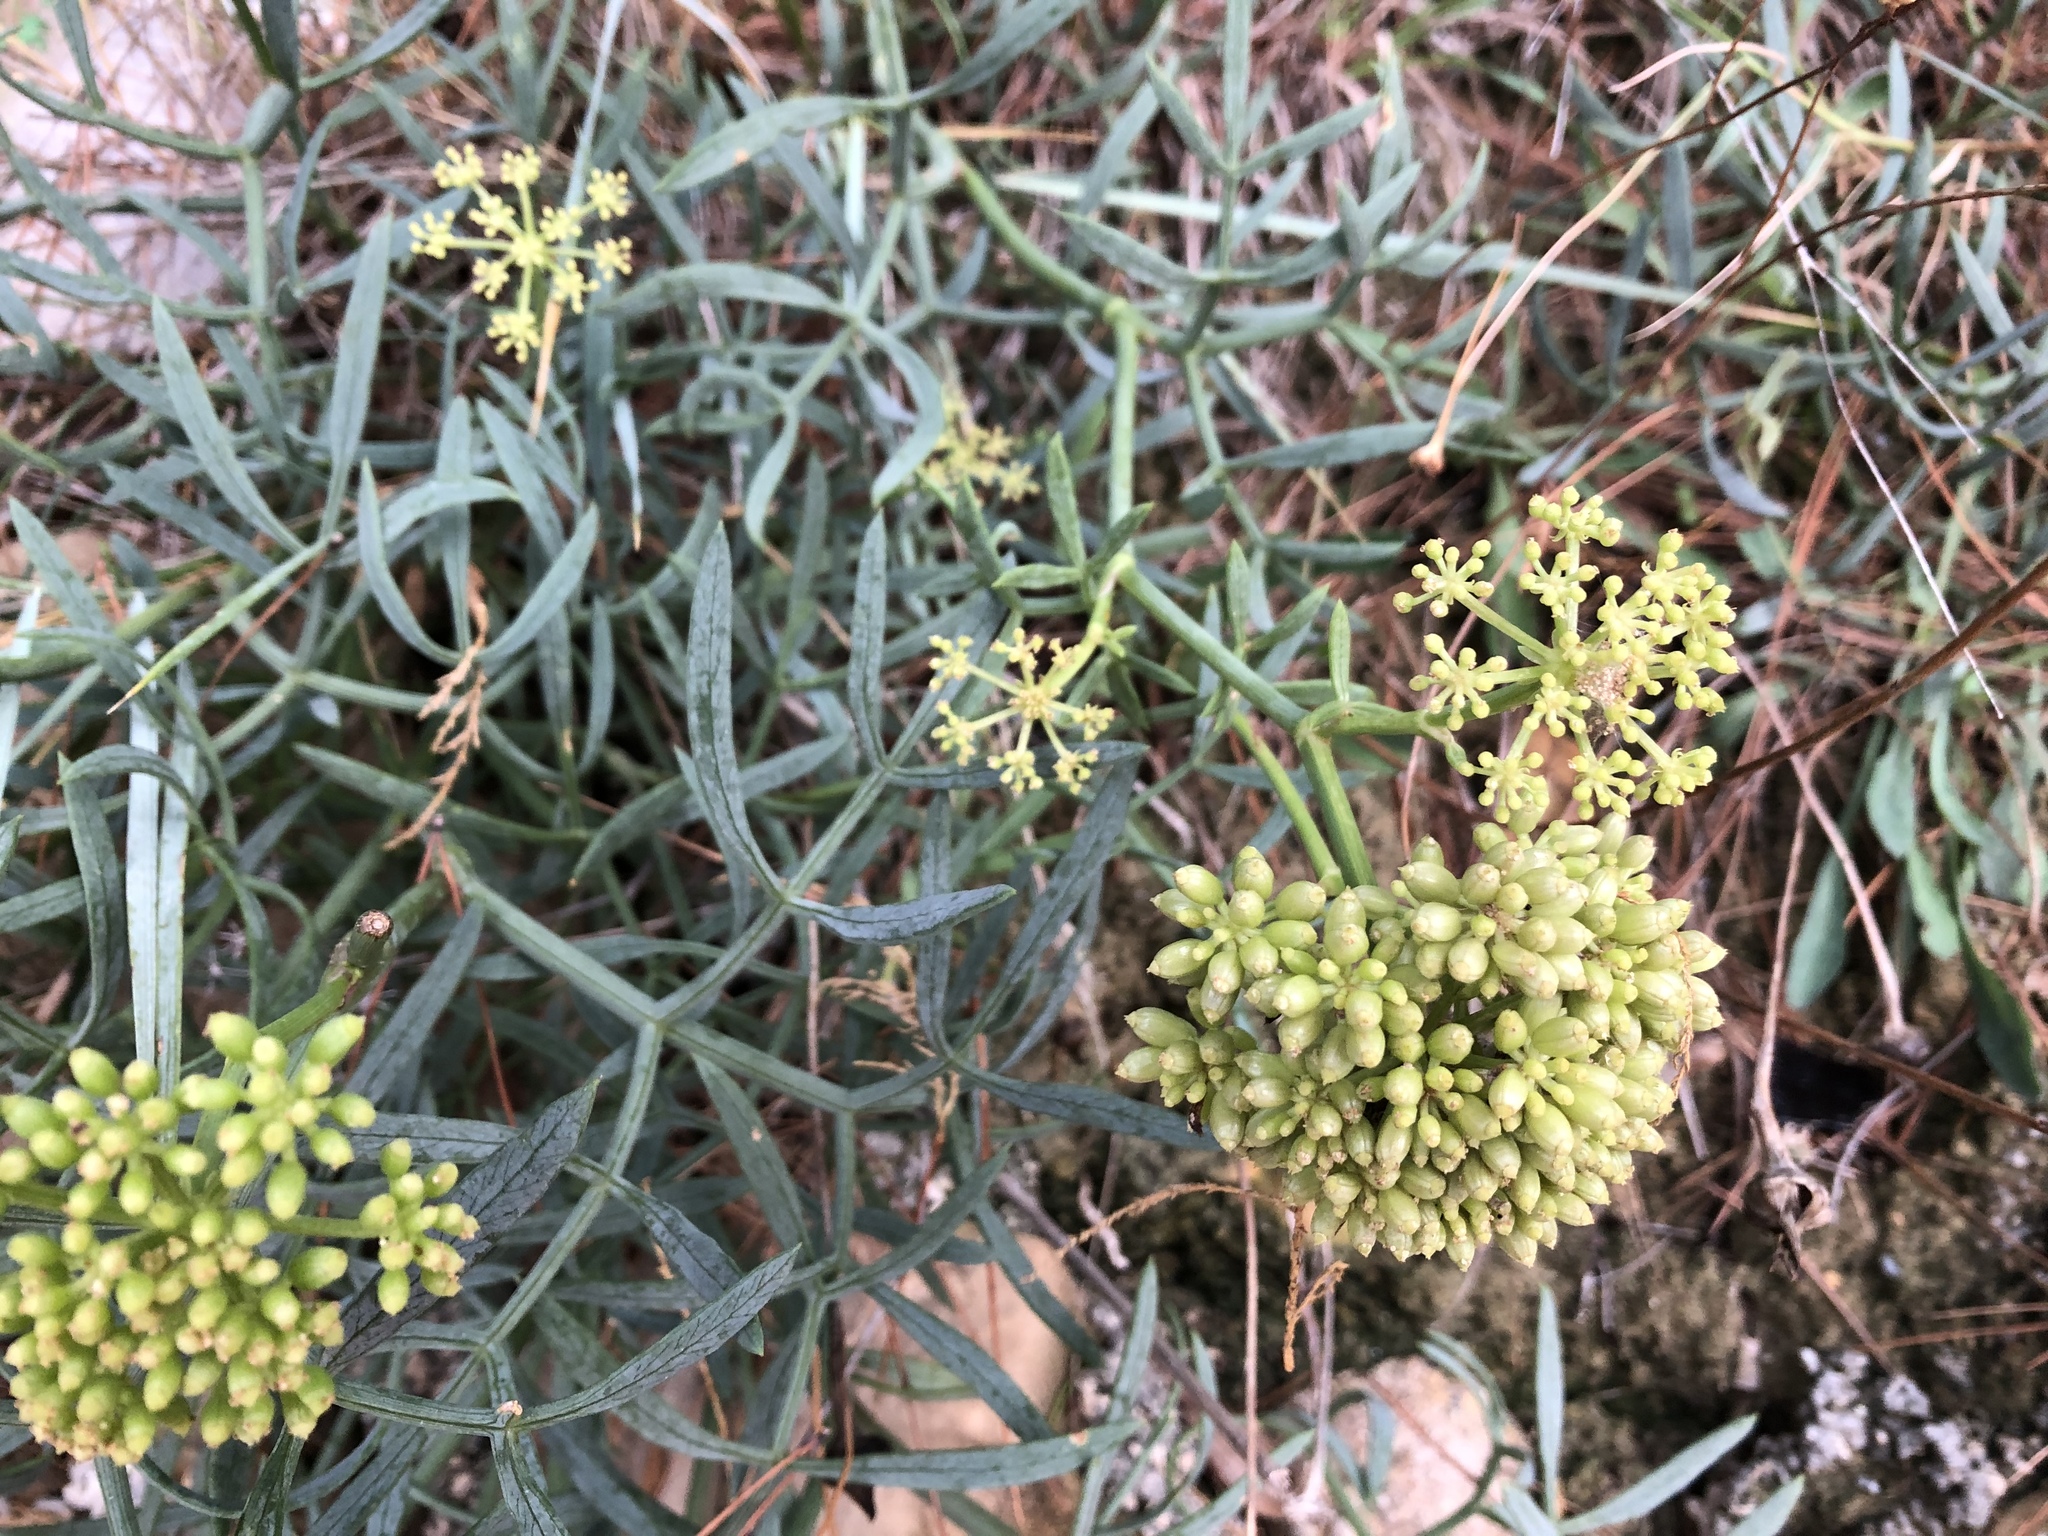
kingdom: Plantae
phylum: Tracheophyta
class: Magnoliopsida
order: Apiales
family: Apiaceae
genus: Crithmum
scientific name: Crithmum maritimum
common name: Rock samphire
